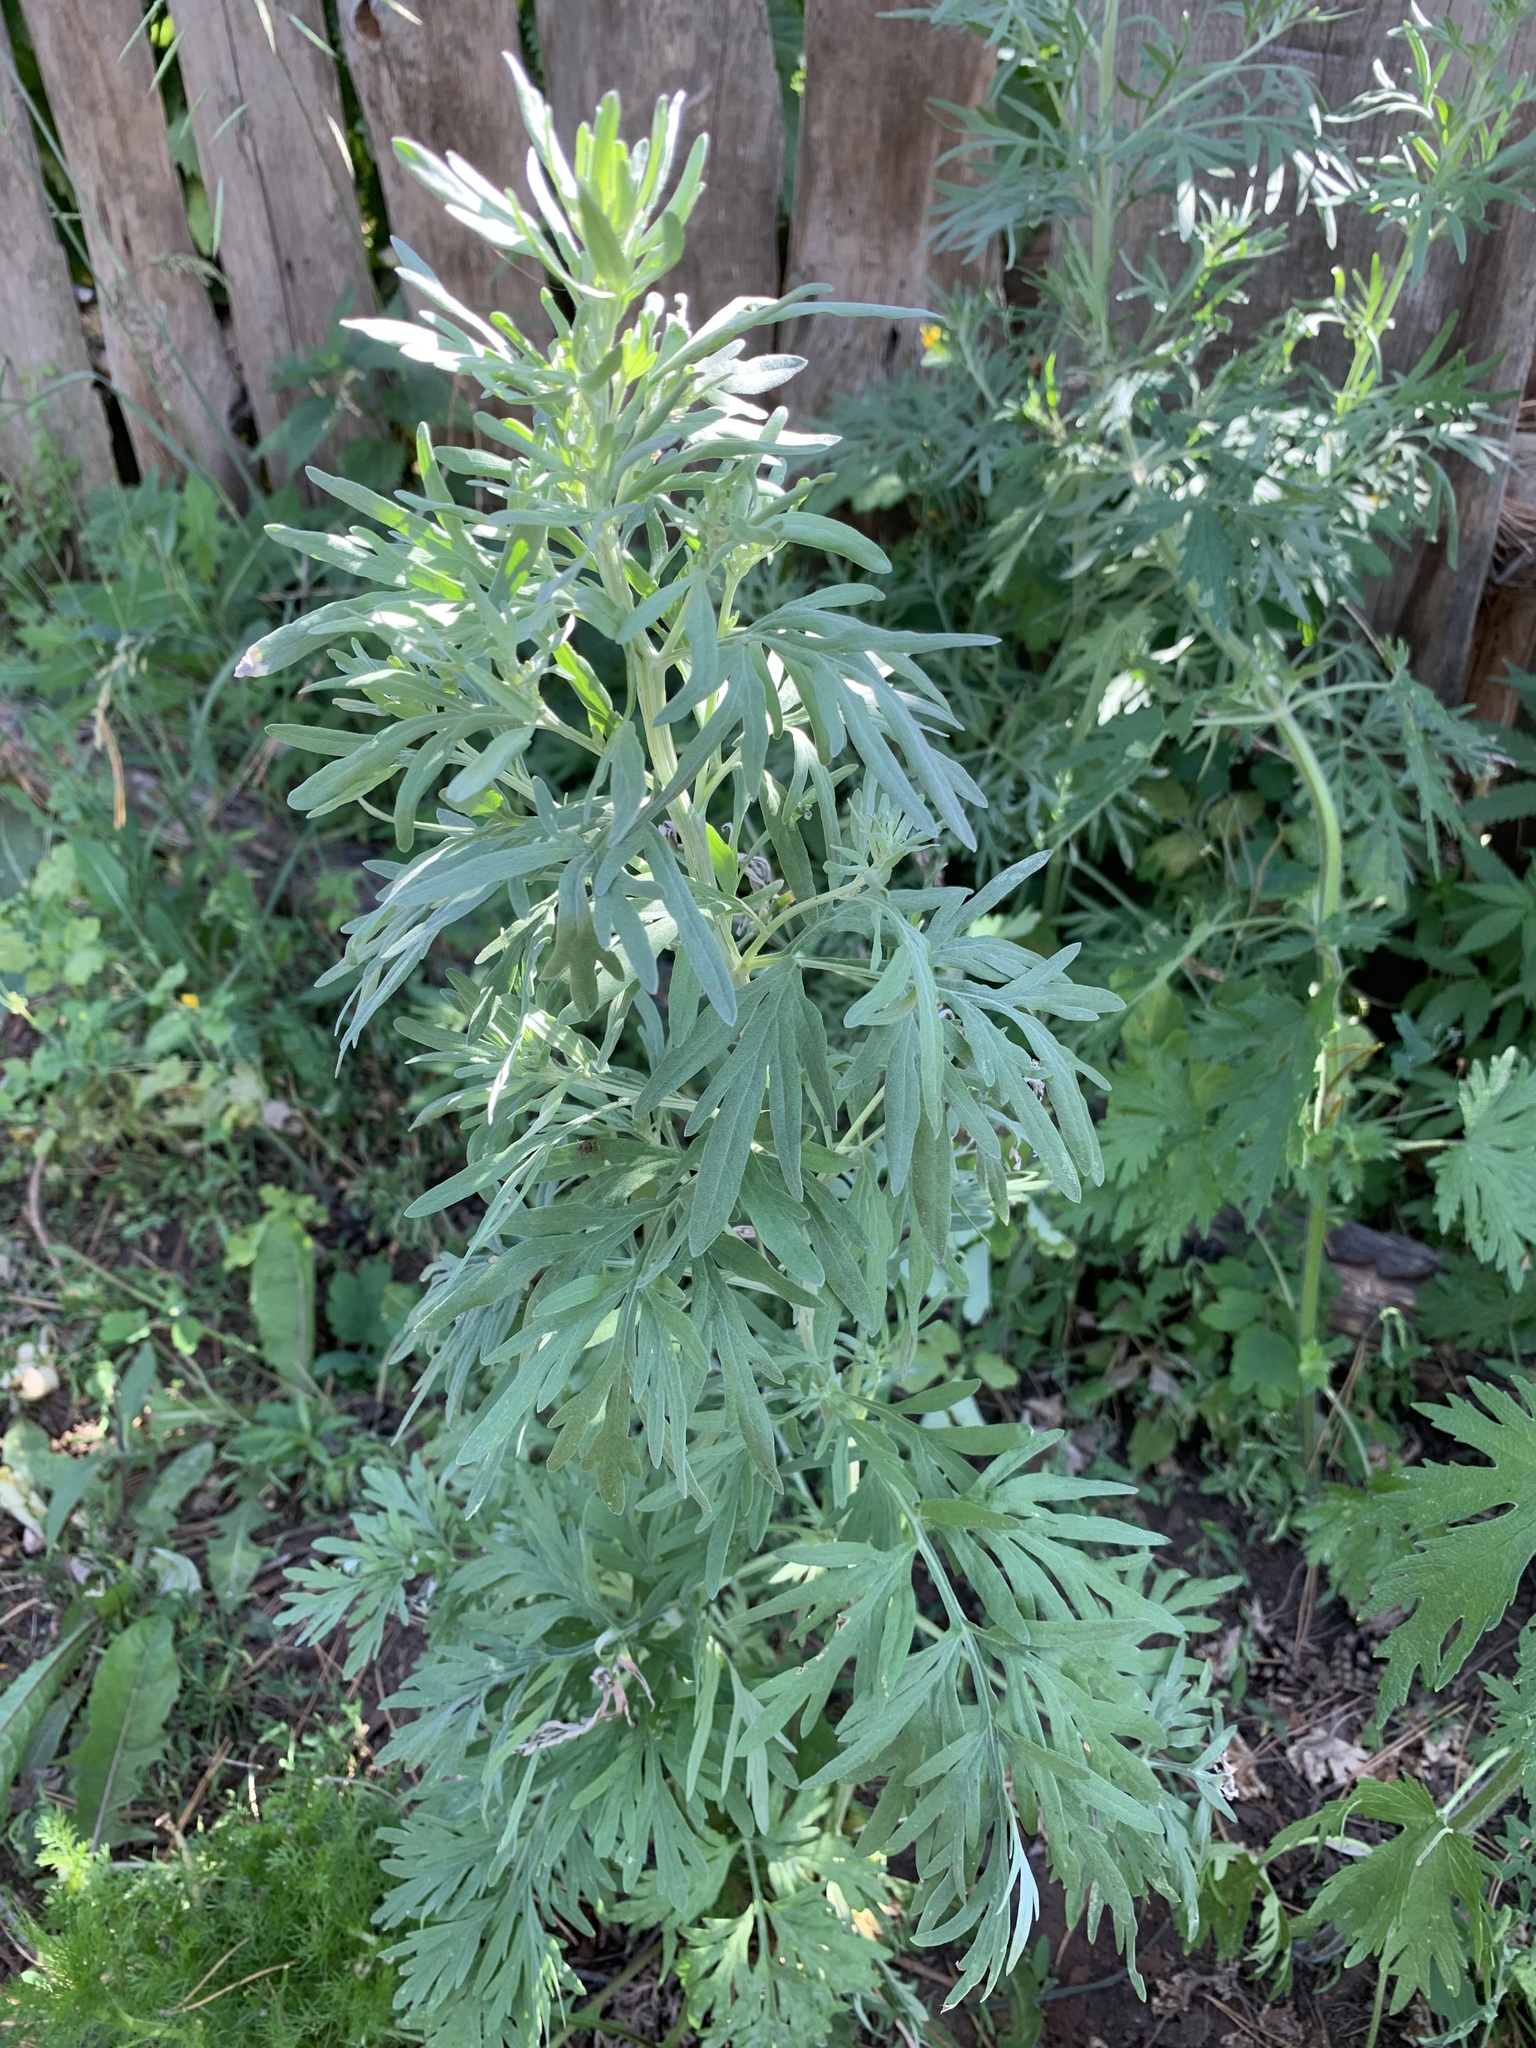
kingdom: Plantae
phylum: Tracheophyta
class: Magnoliopsida
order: Asterales
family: Asteraceae
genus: Artemisia
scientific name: Artemisia absinthium
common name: Wormwood
